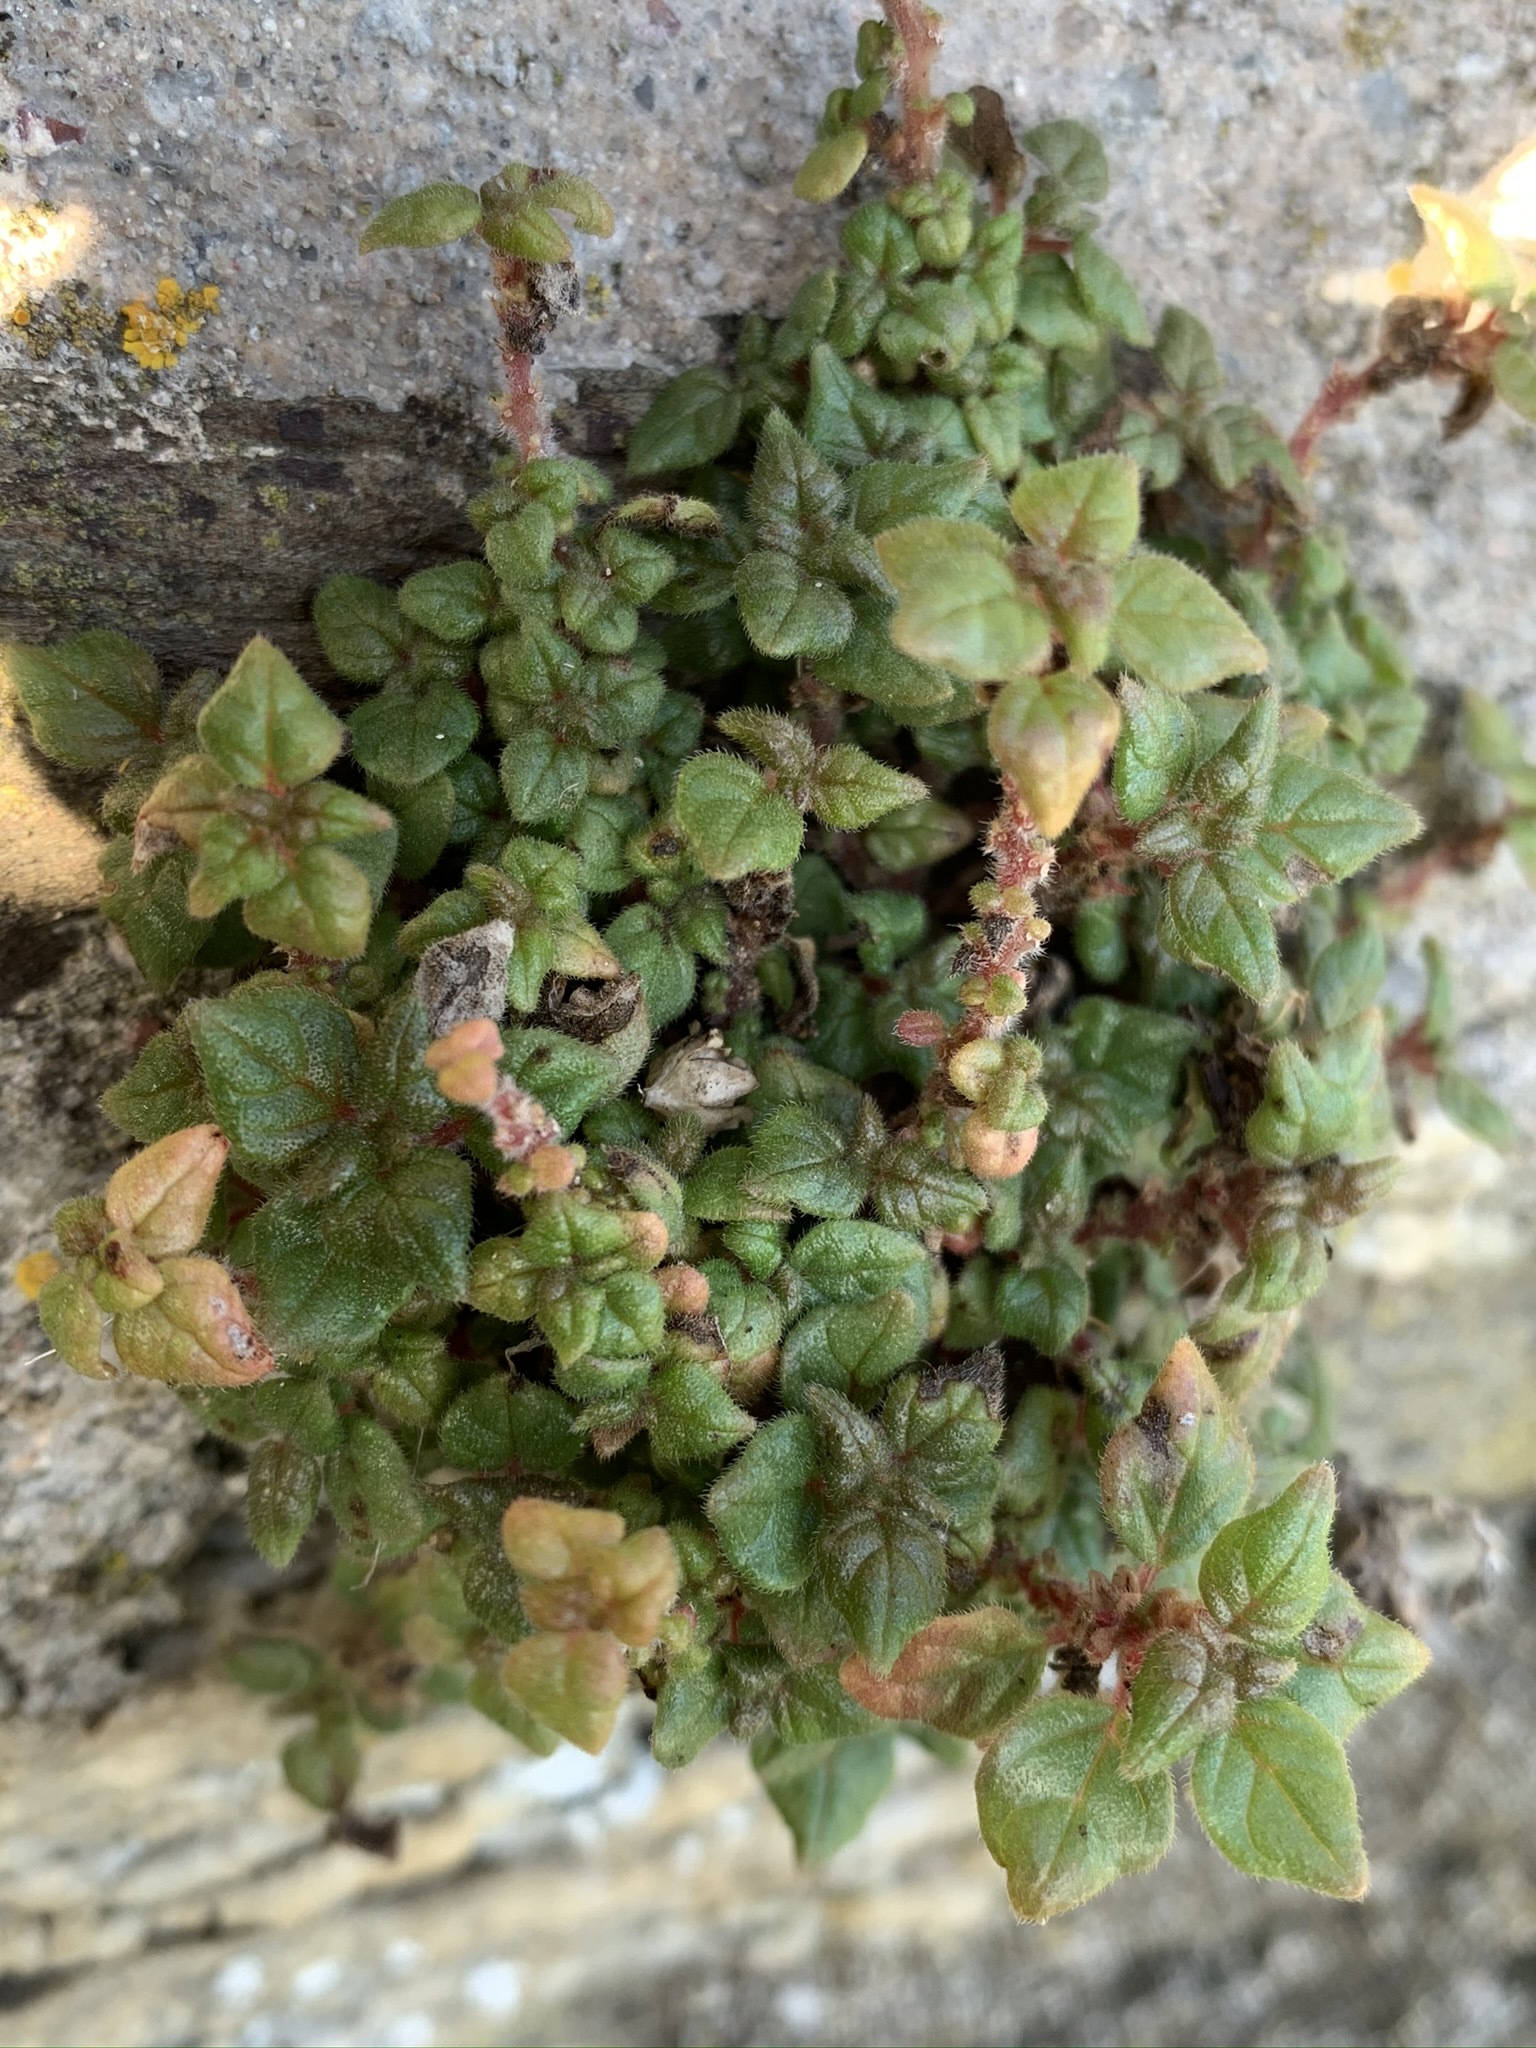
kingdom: Plantae
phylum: Tracheophyta
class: Magnoliopsida
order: Rosales
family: Urticaceae
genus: Parietaria
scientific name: Parietaria judaica
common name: Pellitory-of-the-wall
